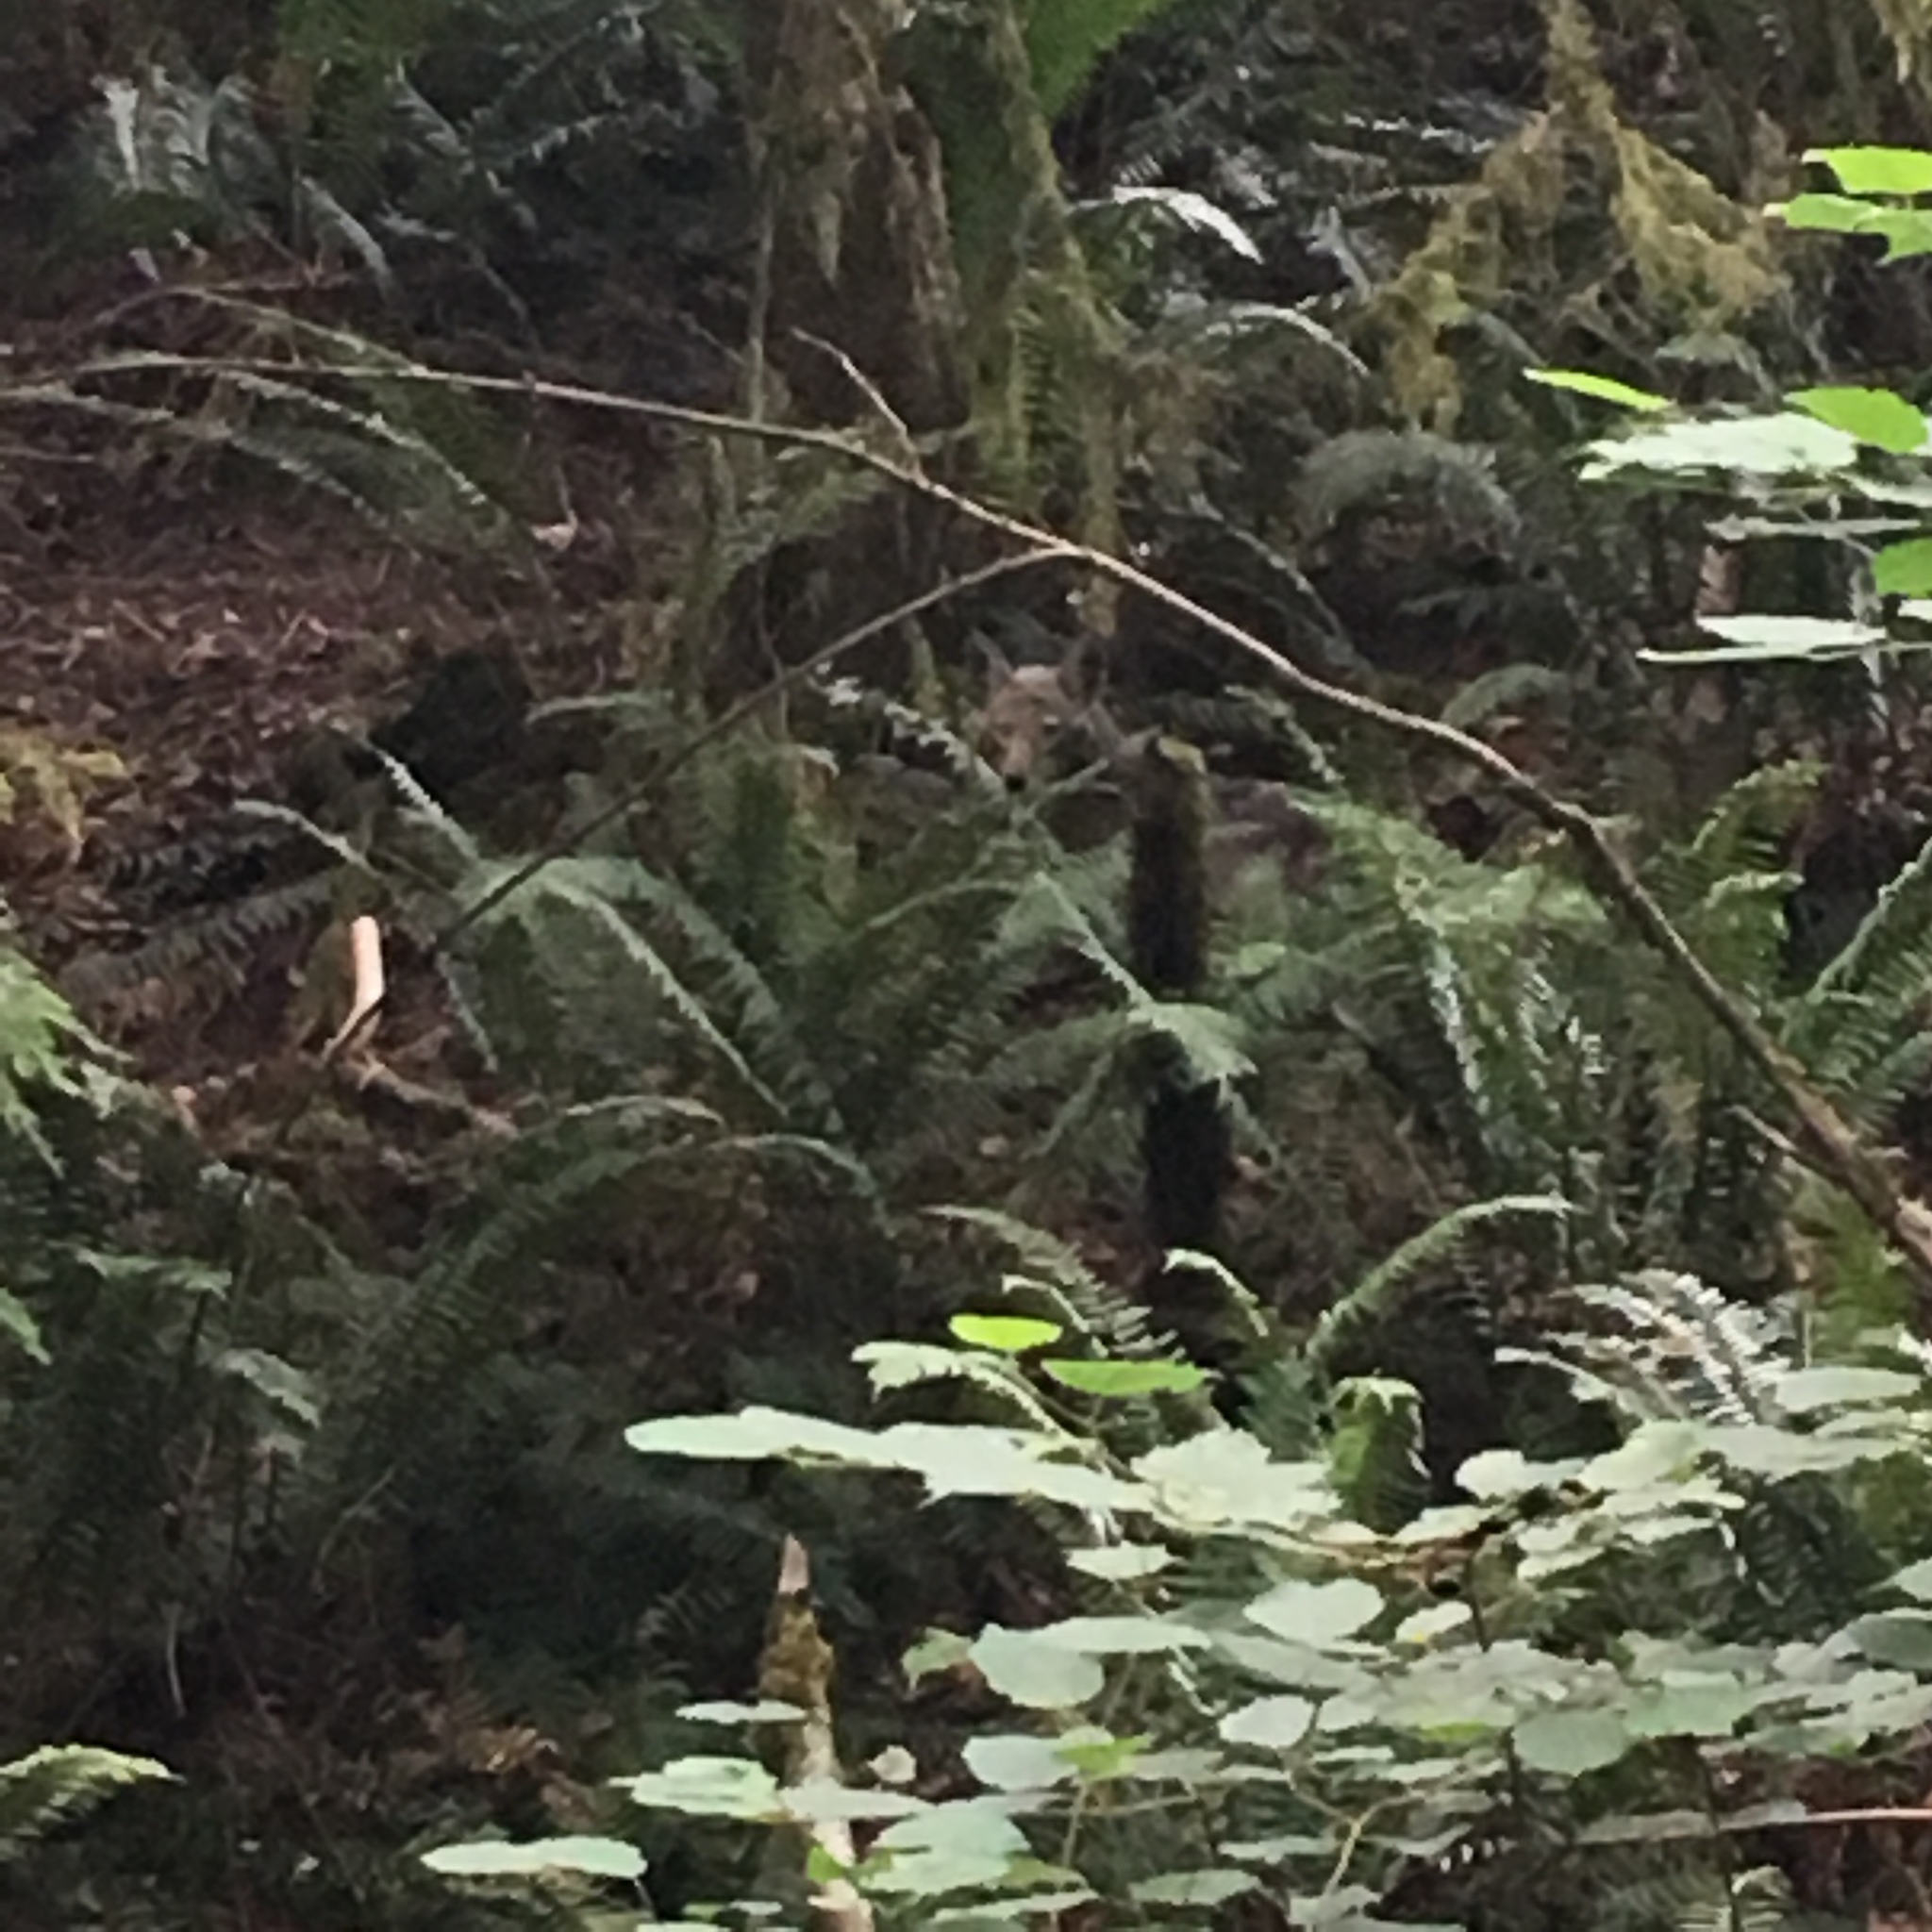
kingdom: Animalia
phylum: Chordata
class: Mammalia
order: Carnivora
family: Canidae
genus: Canis
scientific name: Canis latrans
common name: Coyote
